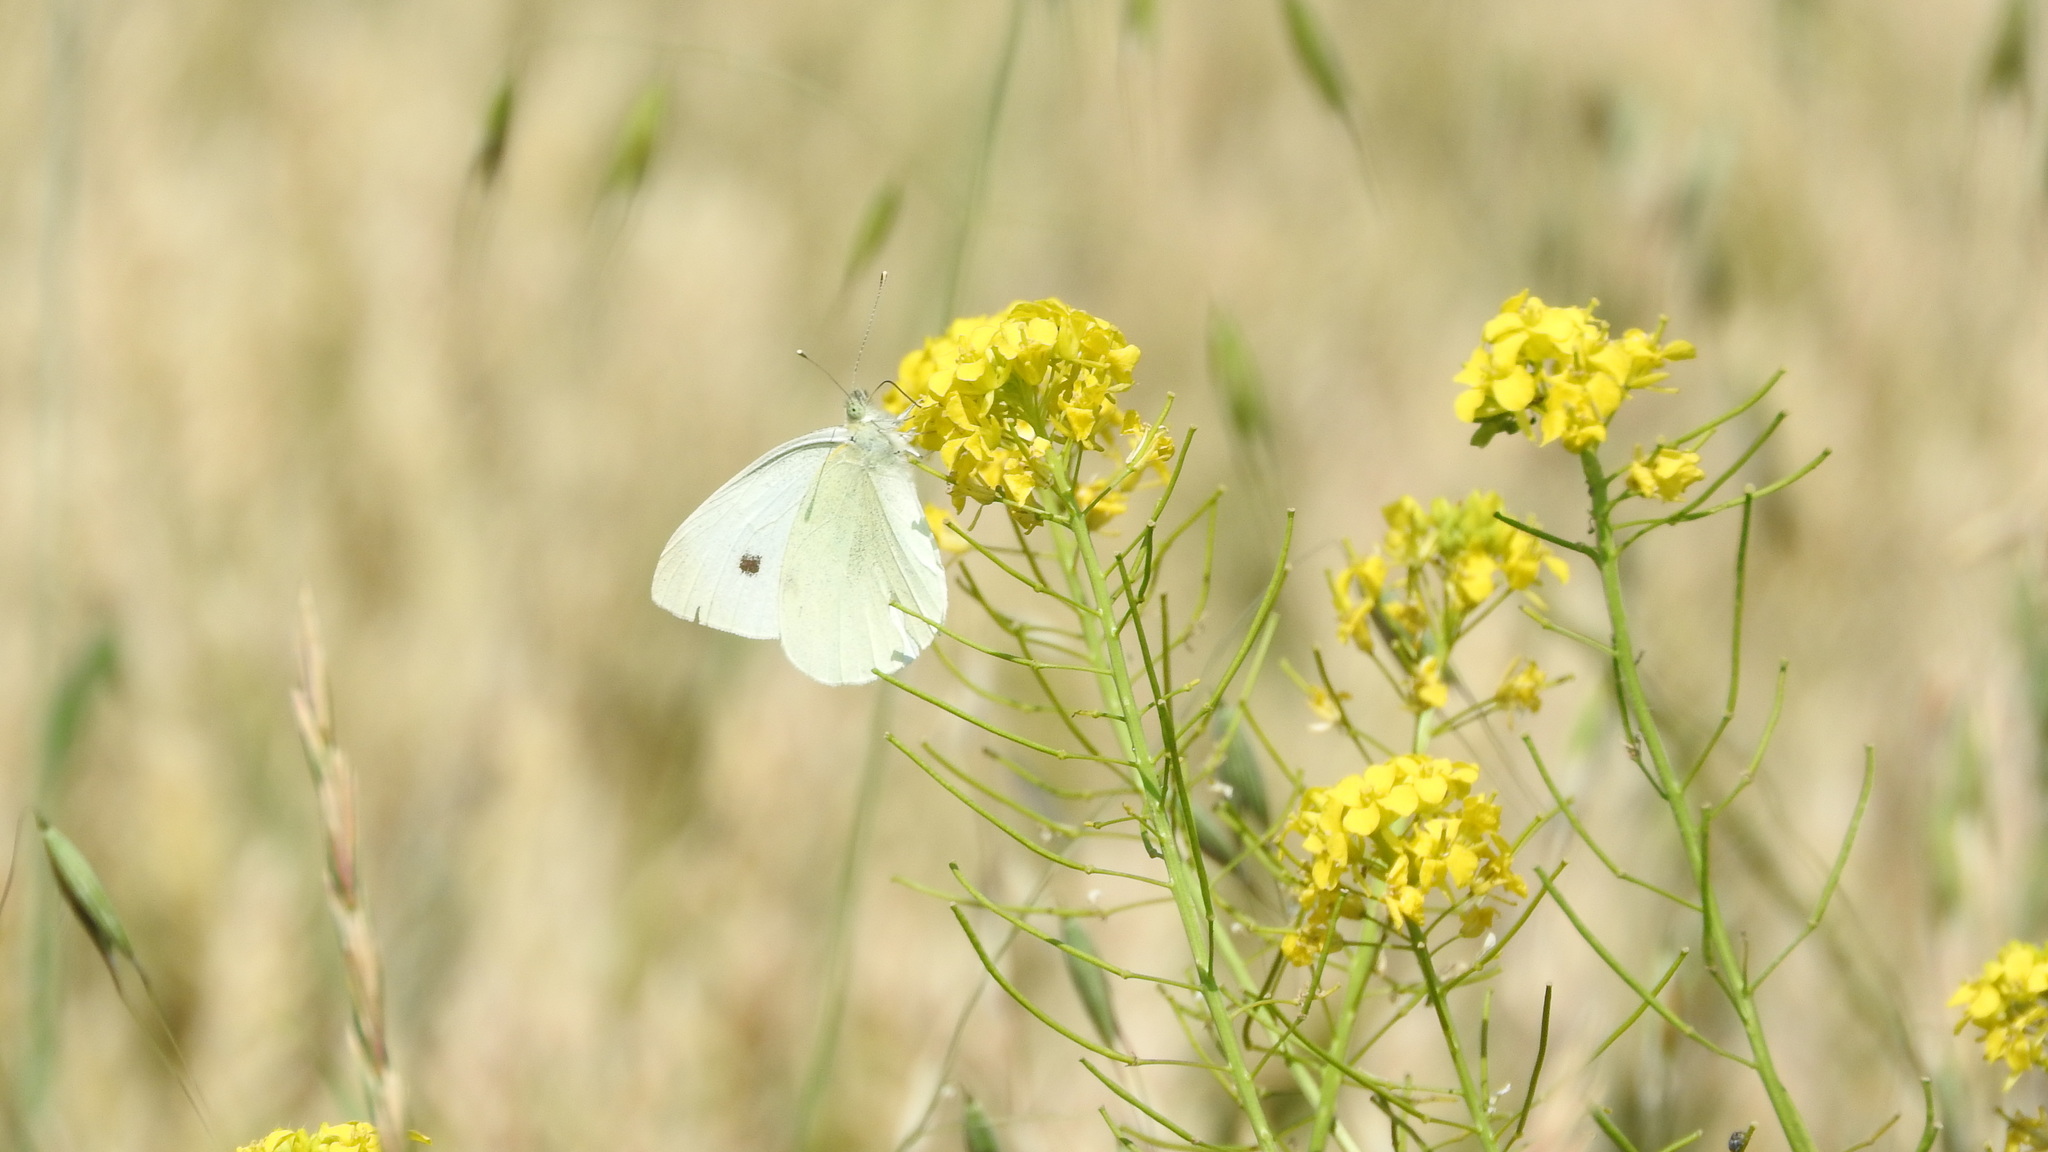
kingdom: Animalia
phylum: Arthropoda
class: Insecta
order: Lepidoptera
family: Pieridae
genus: Pieris
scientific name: Pieris rapae
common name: Small white
